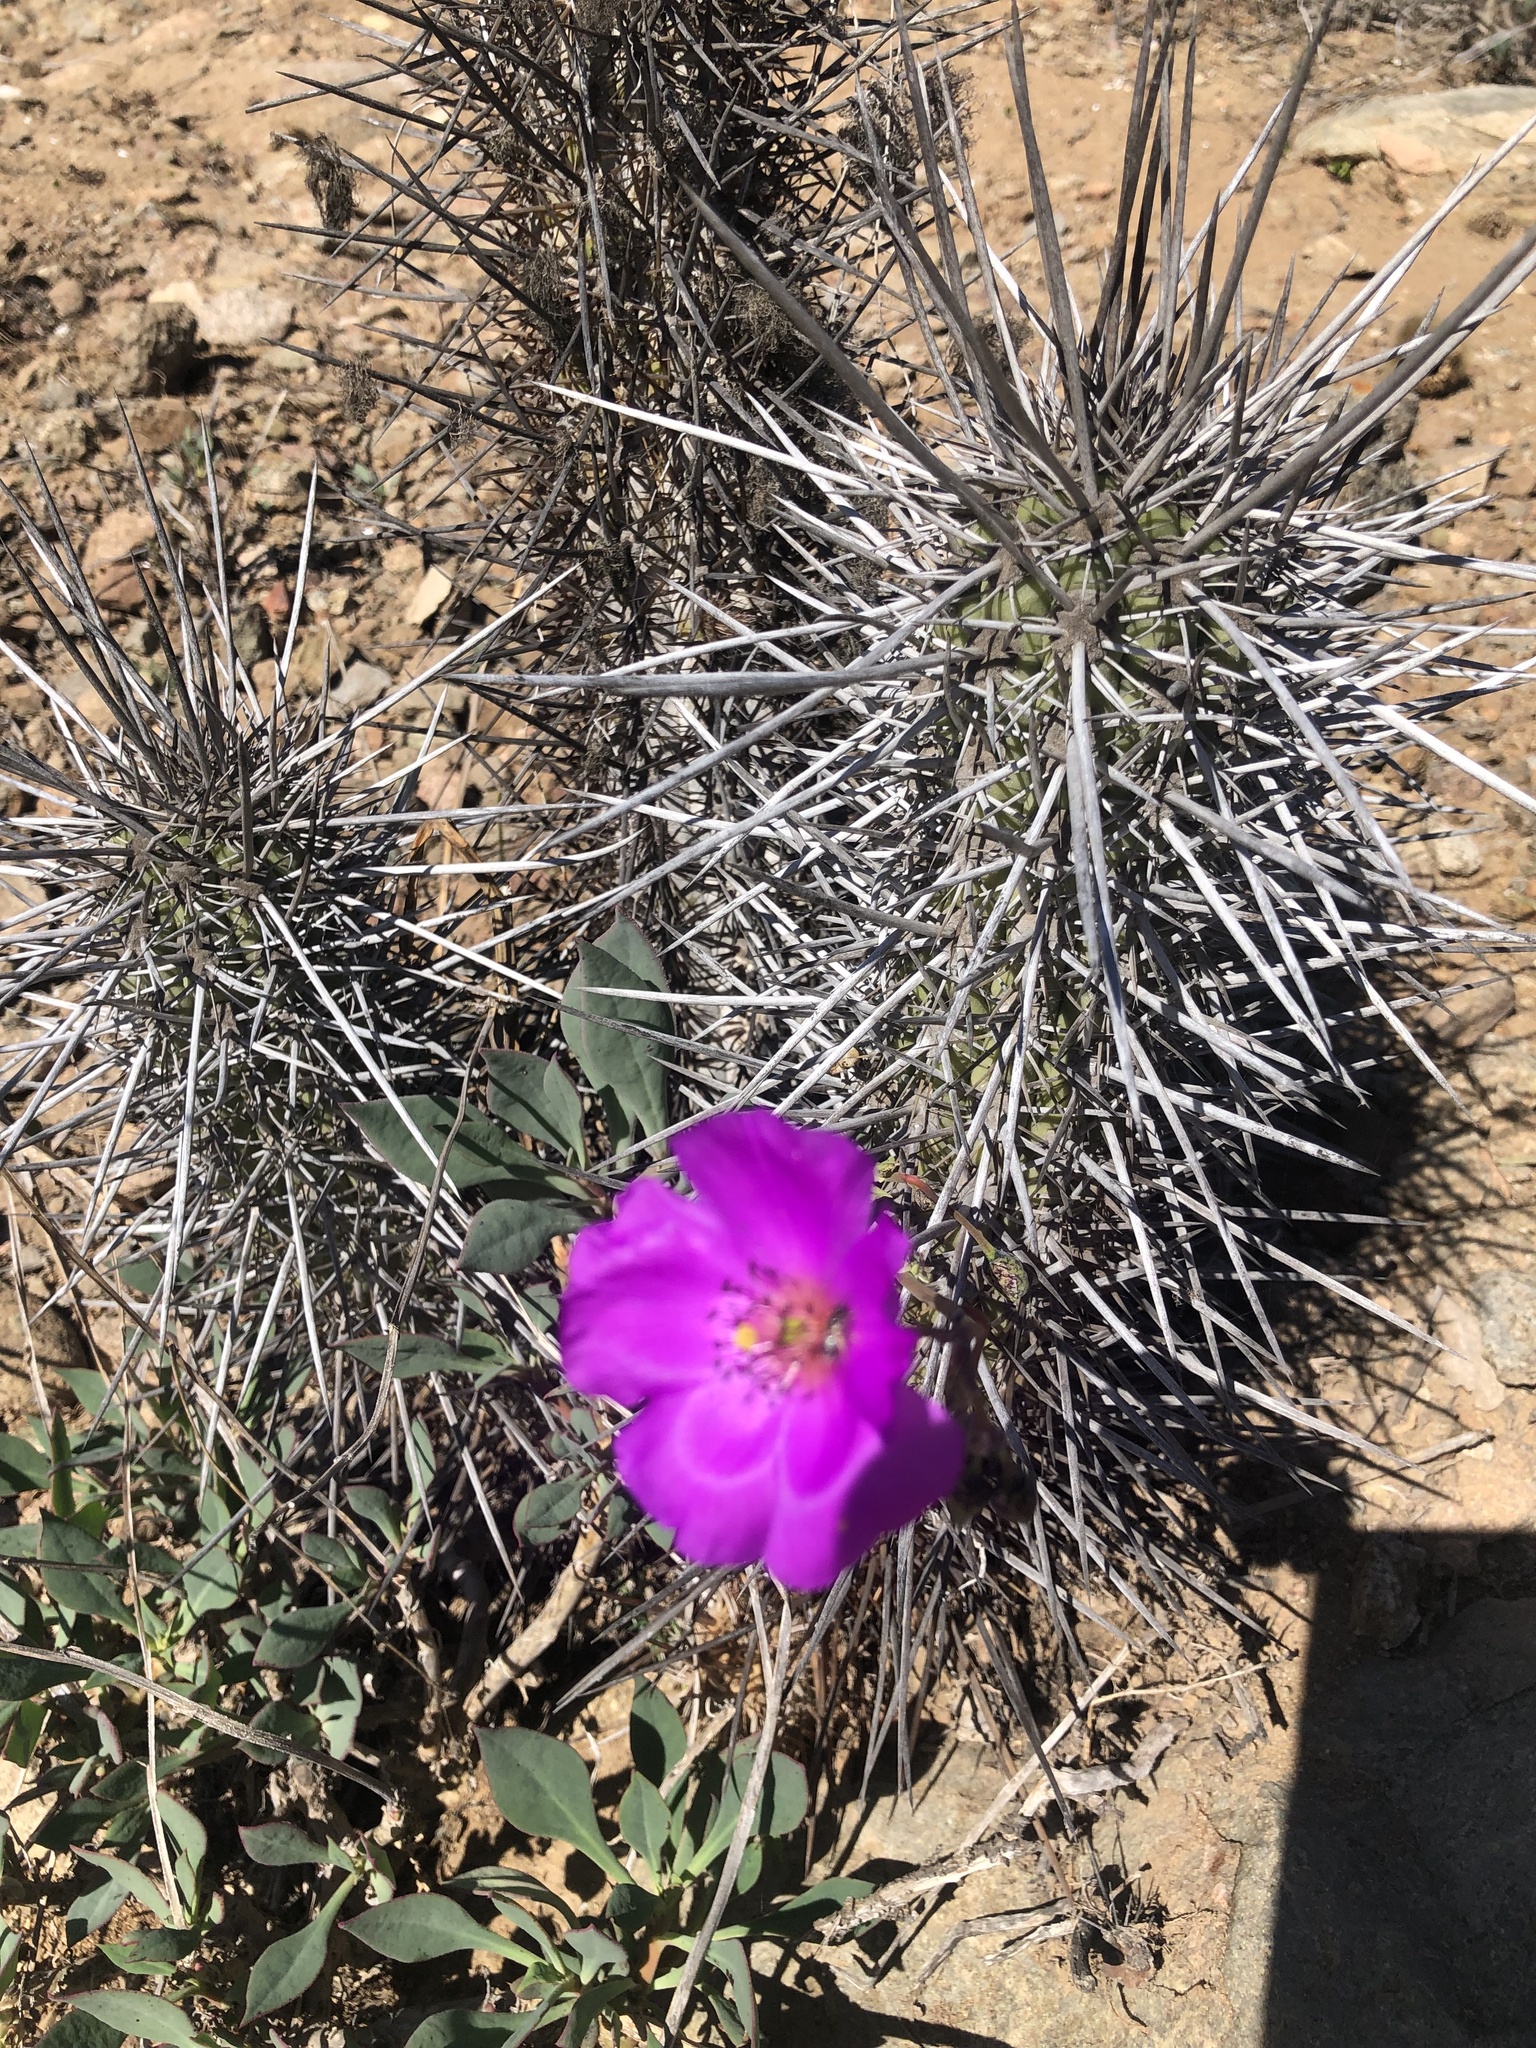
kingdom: Plantae
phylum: Tracheophyta
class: Magnoliopsida
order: Caryophyllales
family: Montiaceae
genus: Cistanthe
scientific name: Cistanthe grandiflora
